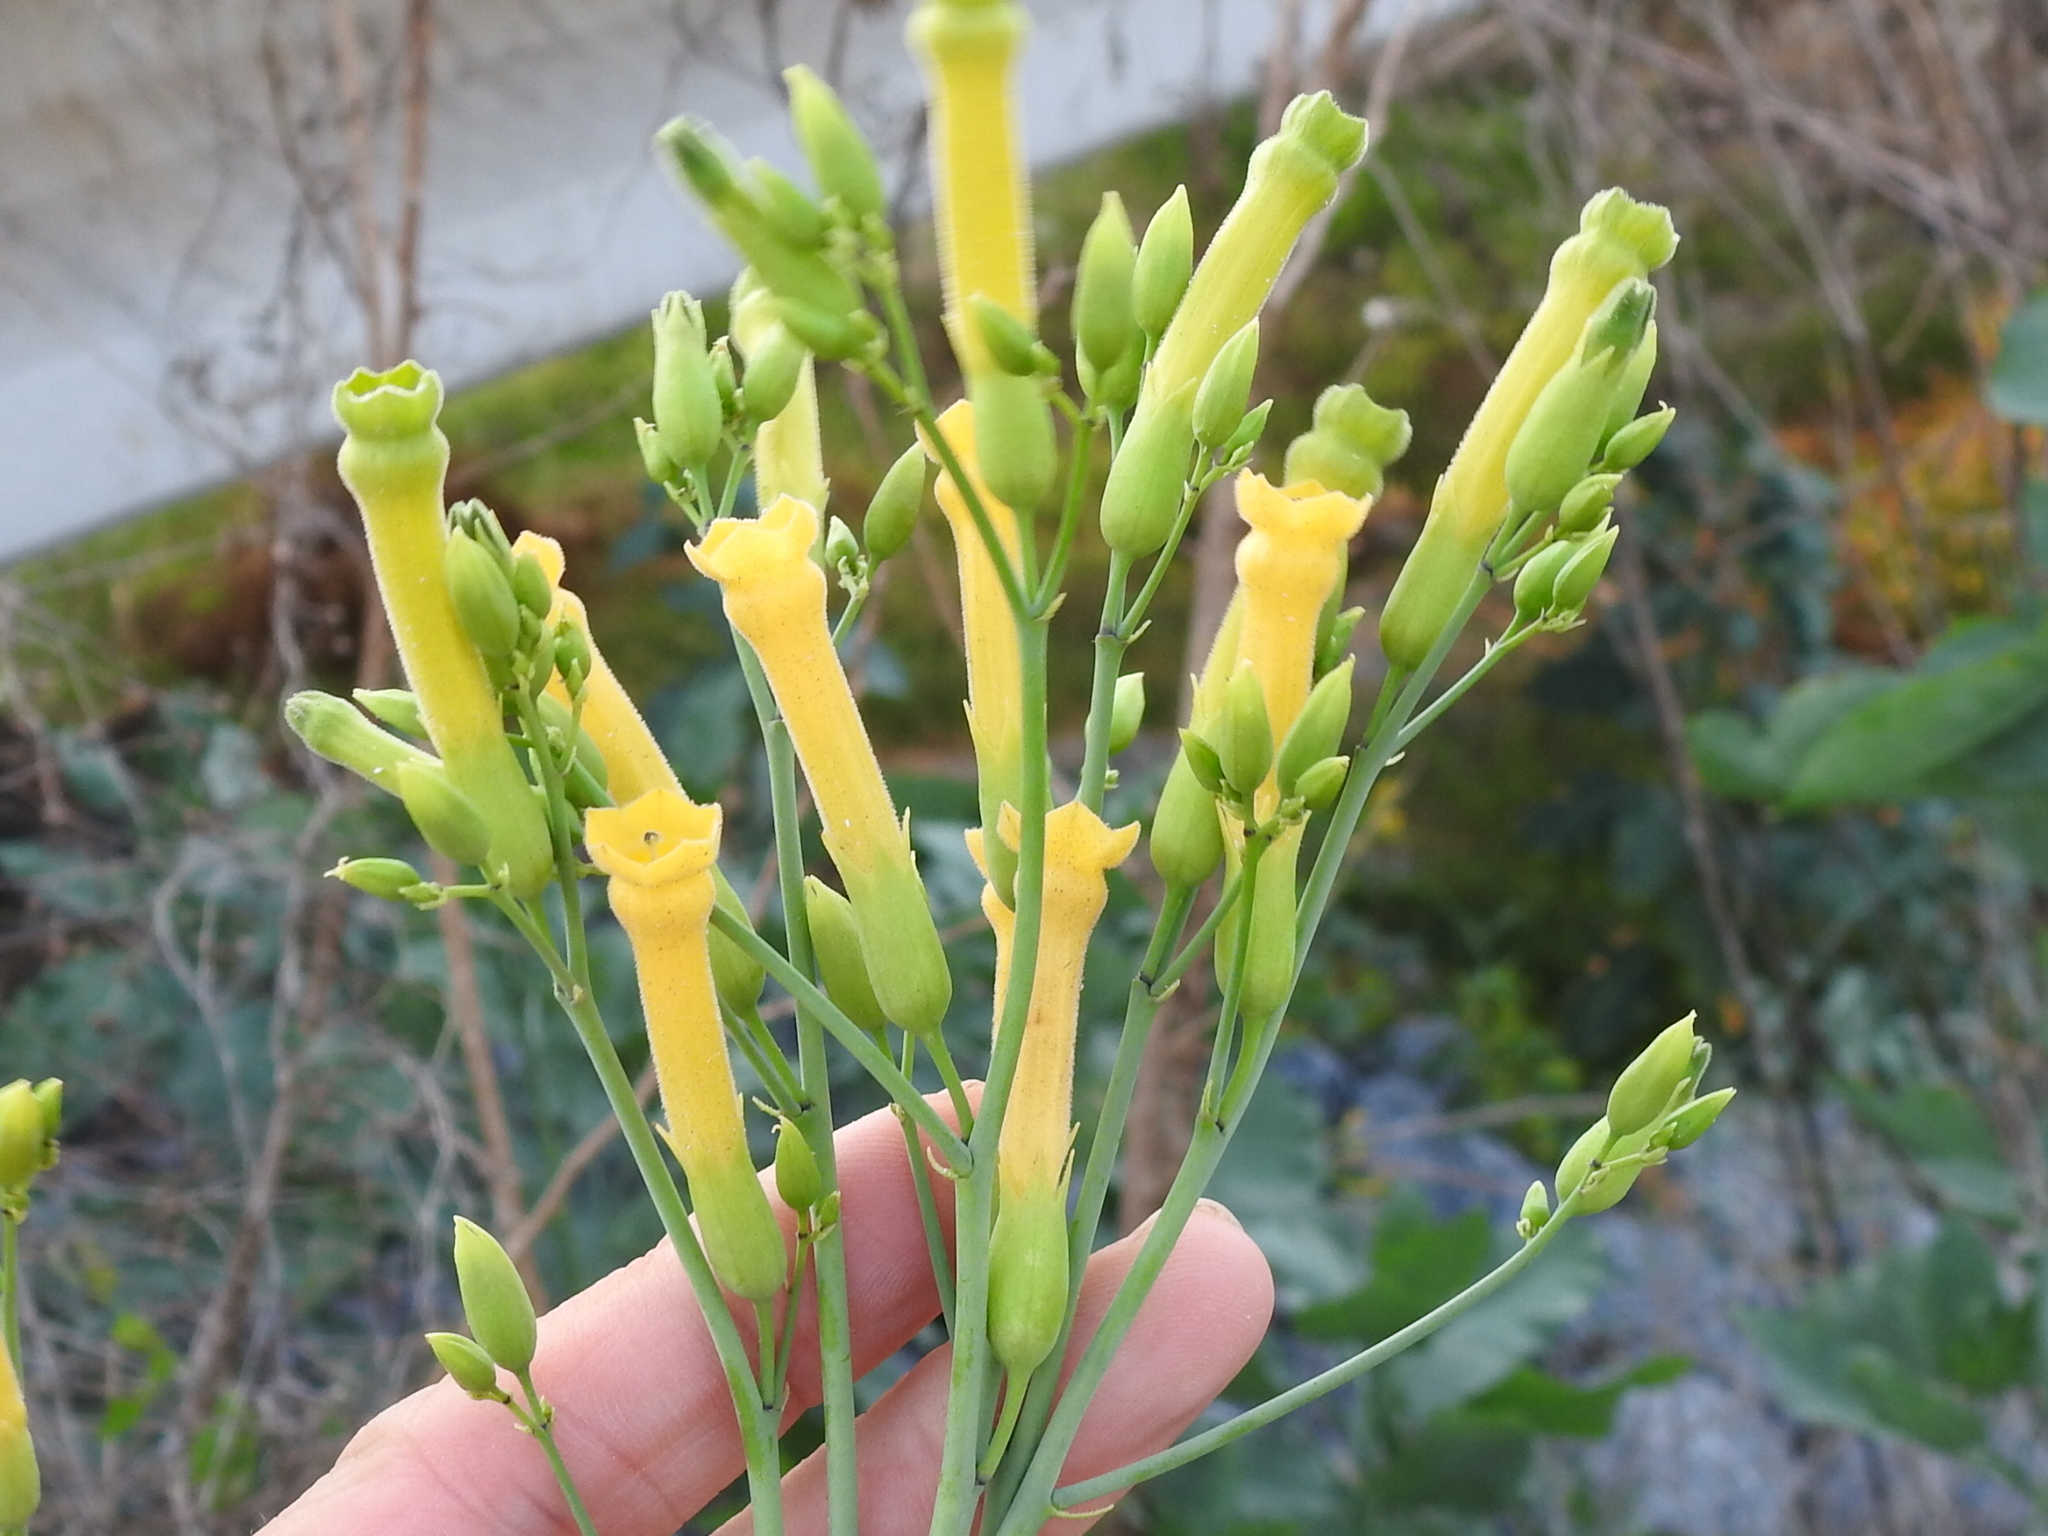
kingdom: Plantae
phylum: Tracheophyta
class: Magnoliopsida
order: Solanales
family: Solanaceae
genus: Nicotiana
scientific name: Nicotiana glauca
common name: Tree tobacco
